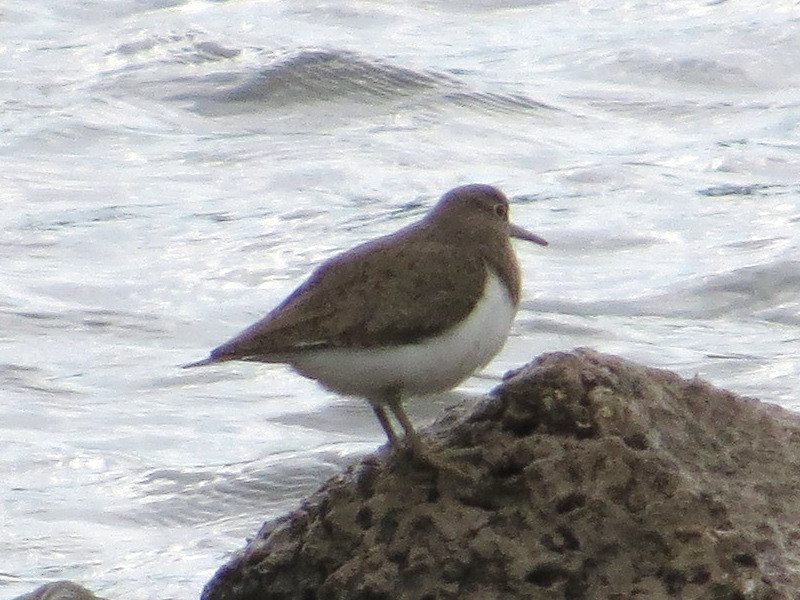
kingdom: Animalia
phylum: Chordata
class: Aves
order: Charadriiformes
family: Scolopacidae
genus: Actitis
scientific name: Actitis hypoleucos
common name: Common sandpiper
